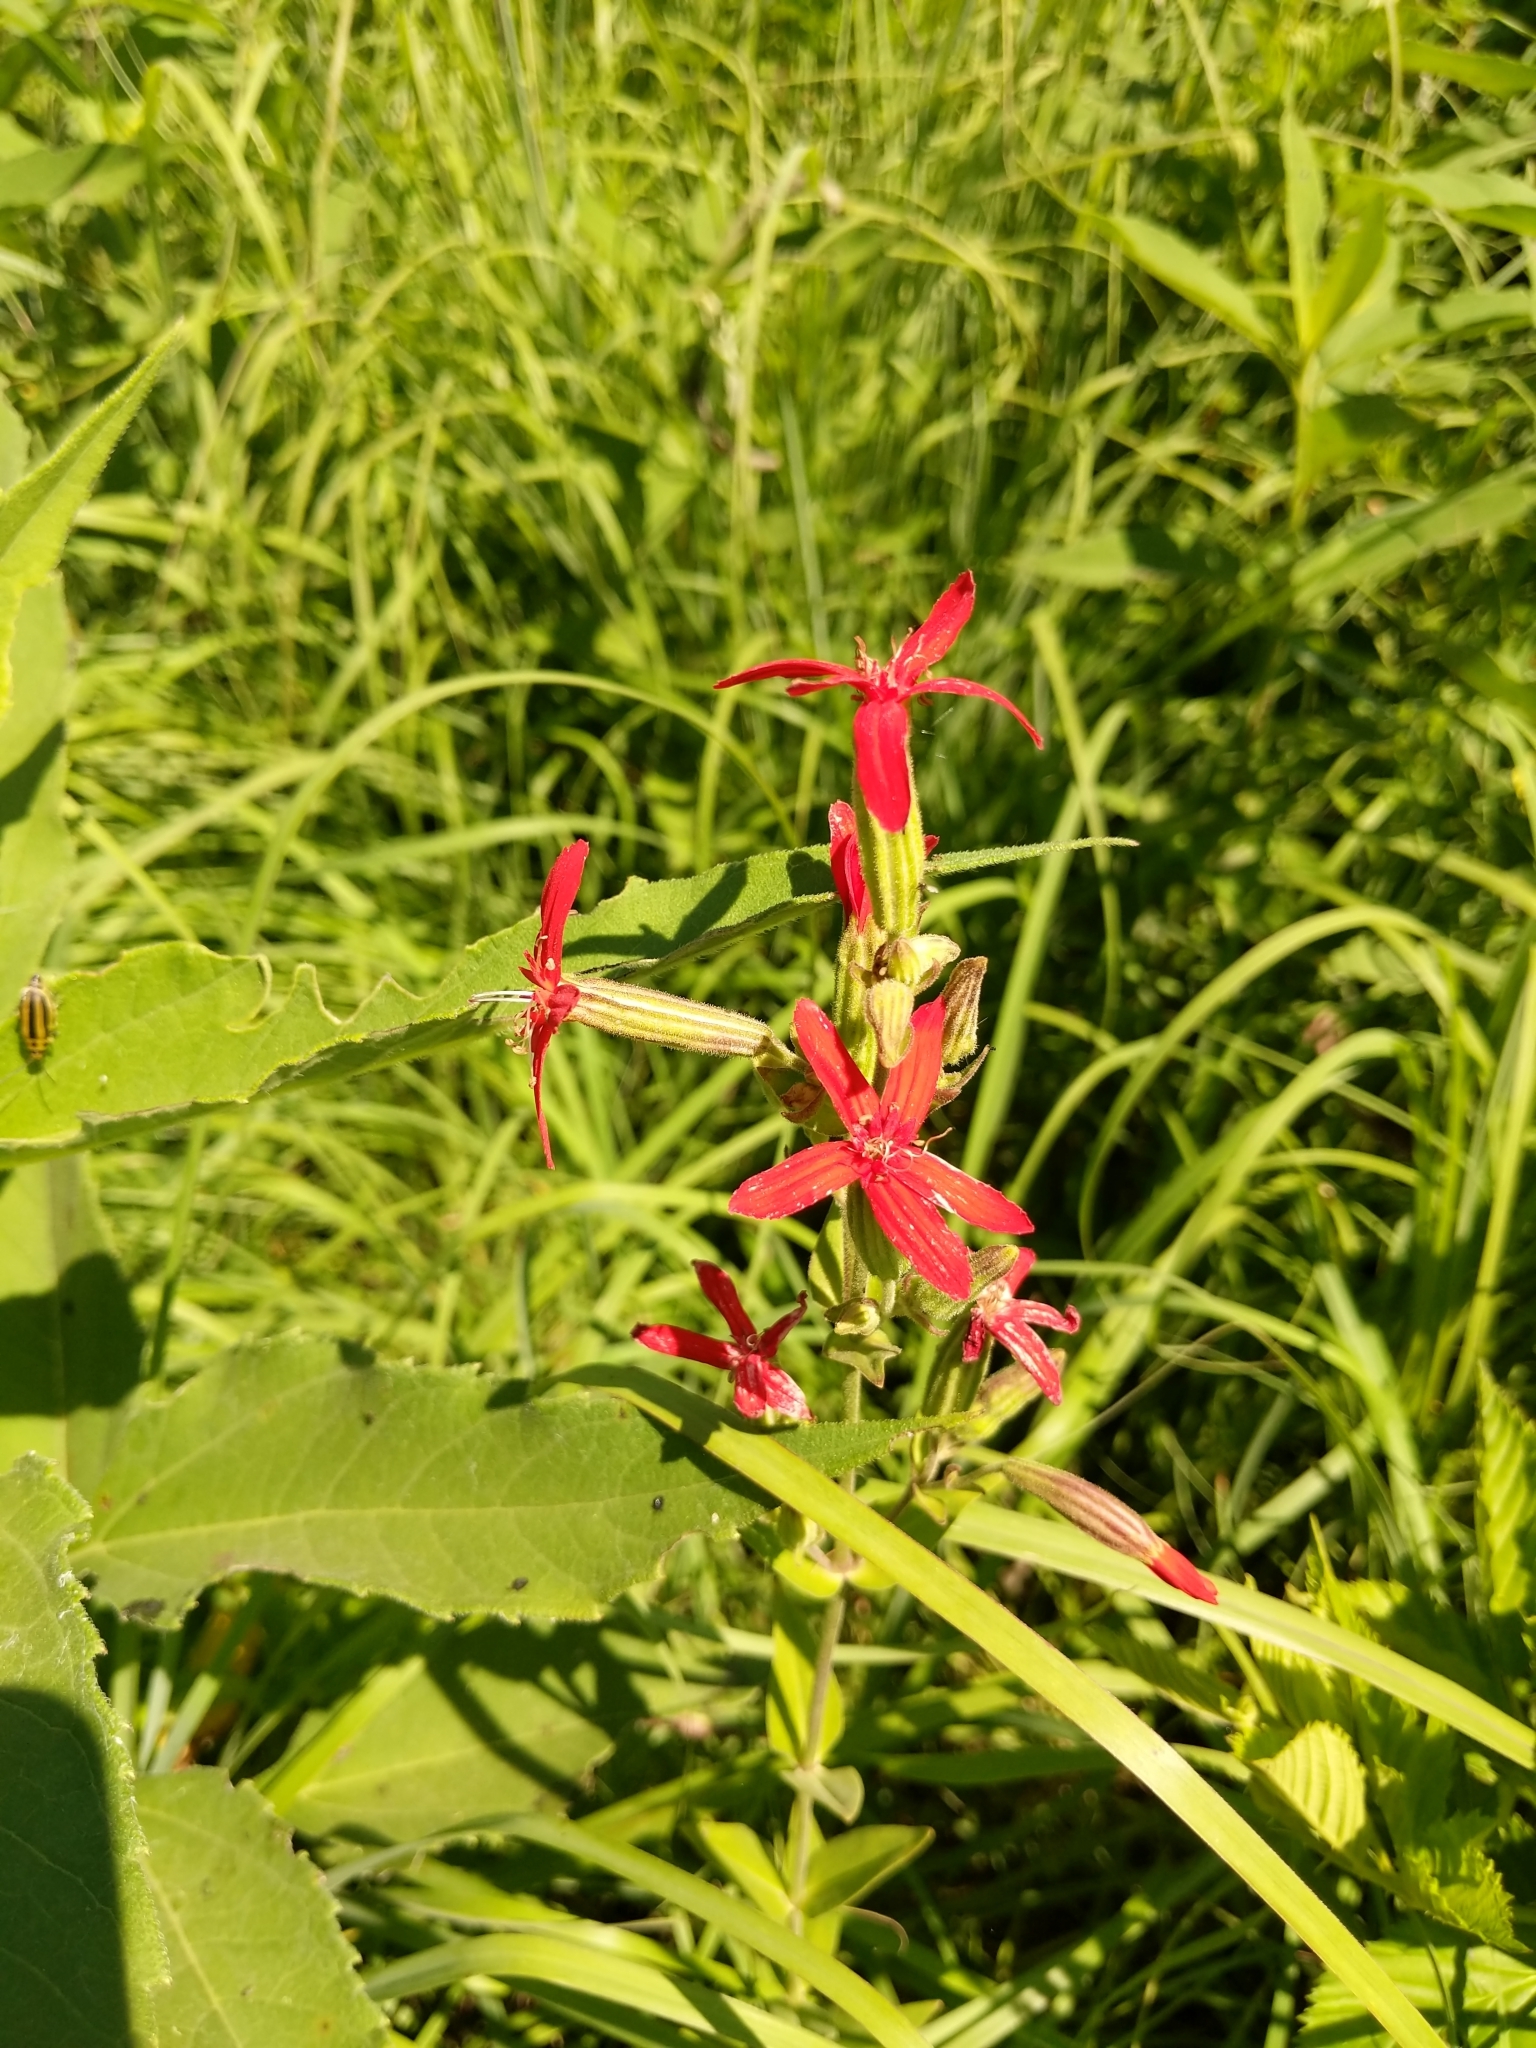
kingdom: Plantae
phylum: Tracheophyta
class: Magnoliopsida
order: Caryophyllales
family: Caryophyllaceae
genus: Silene
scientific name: Silene regia
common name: Royal catchfly
